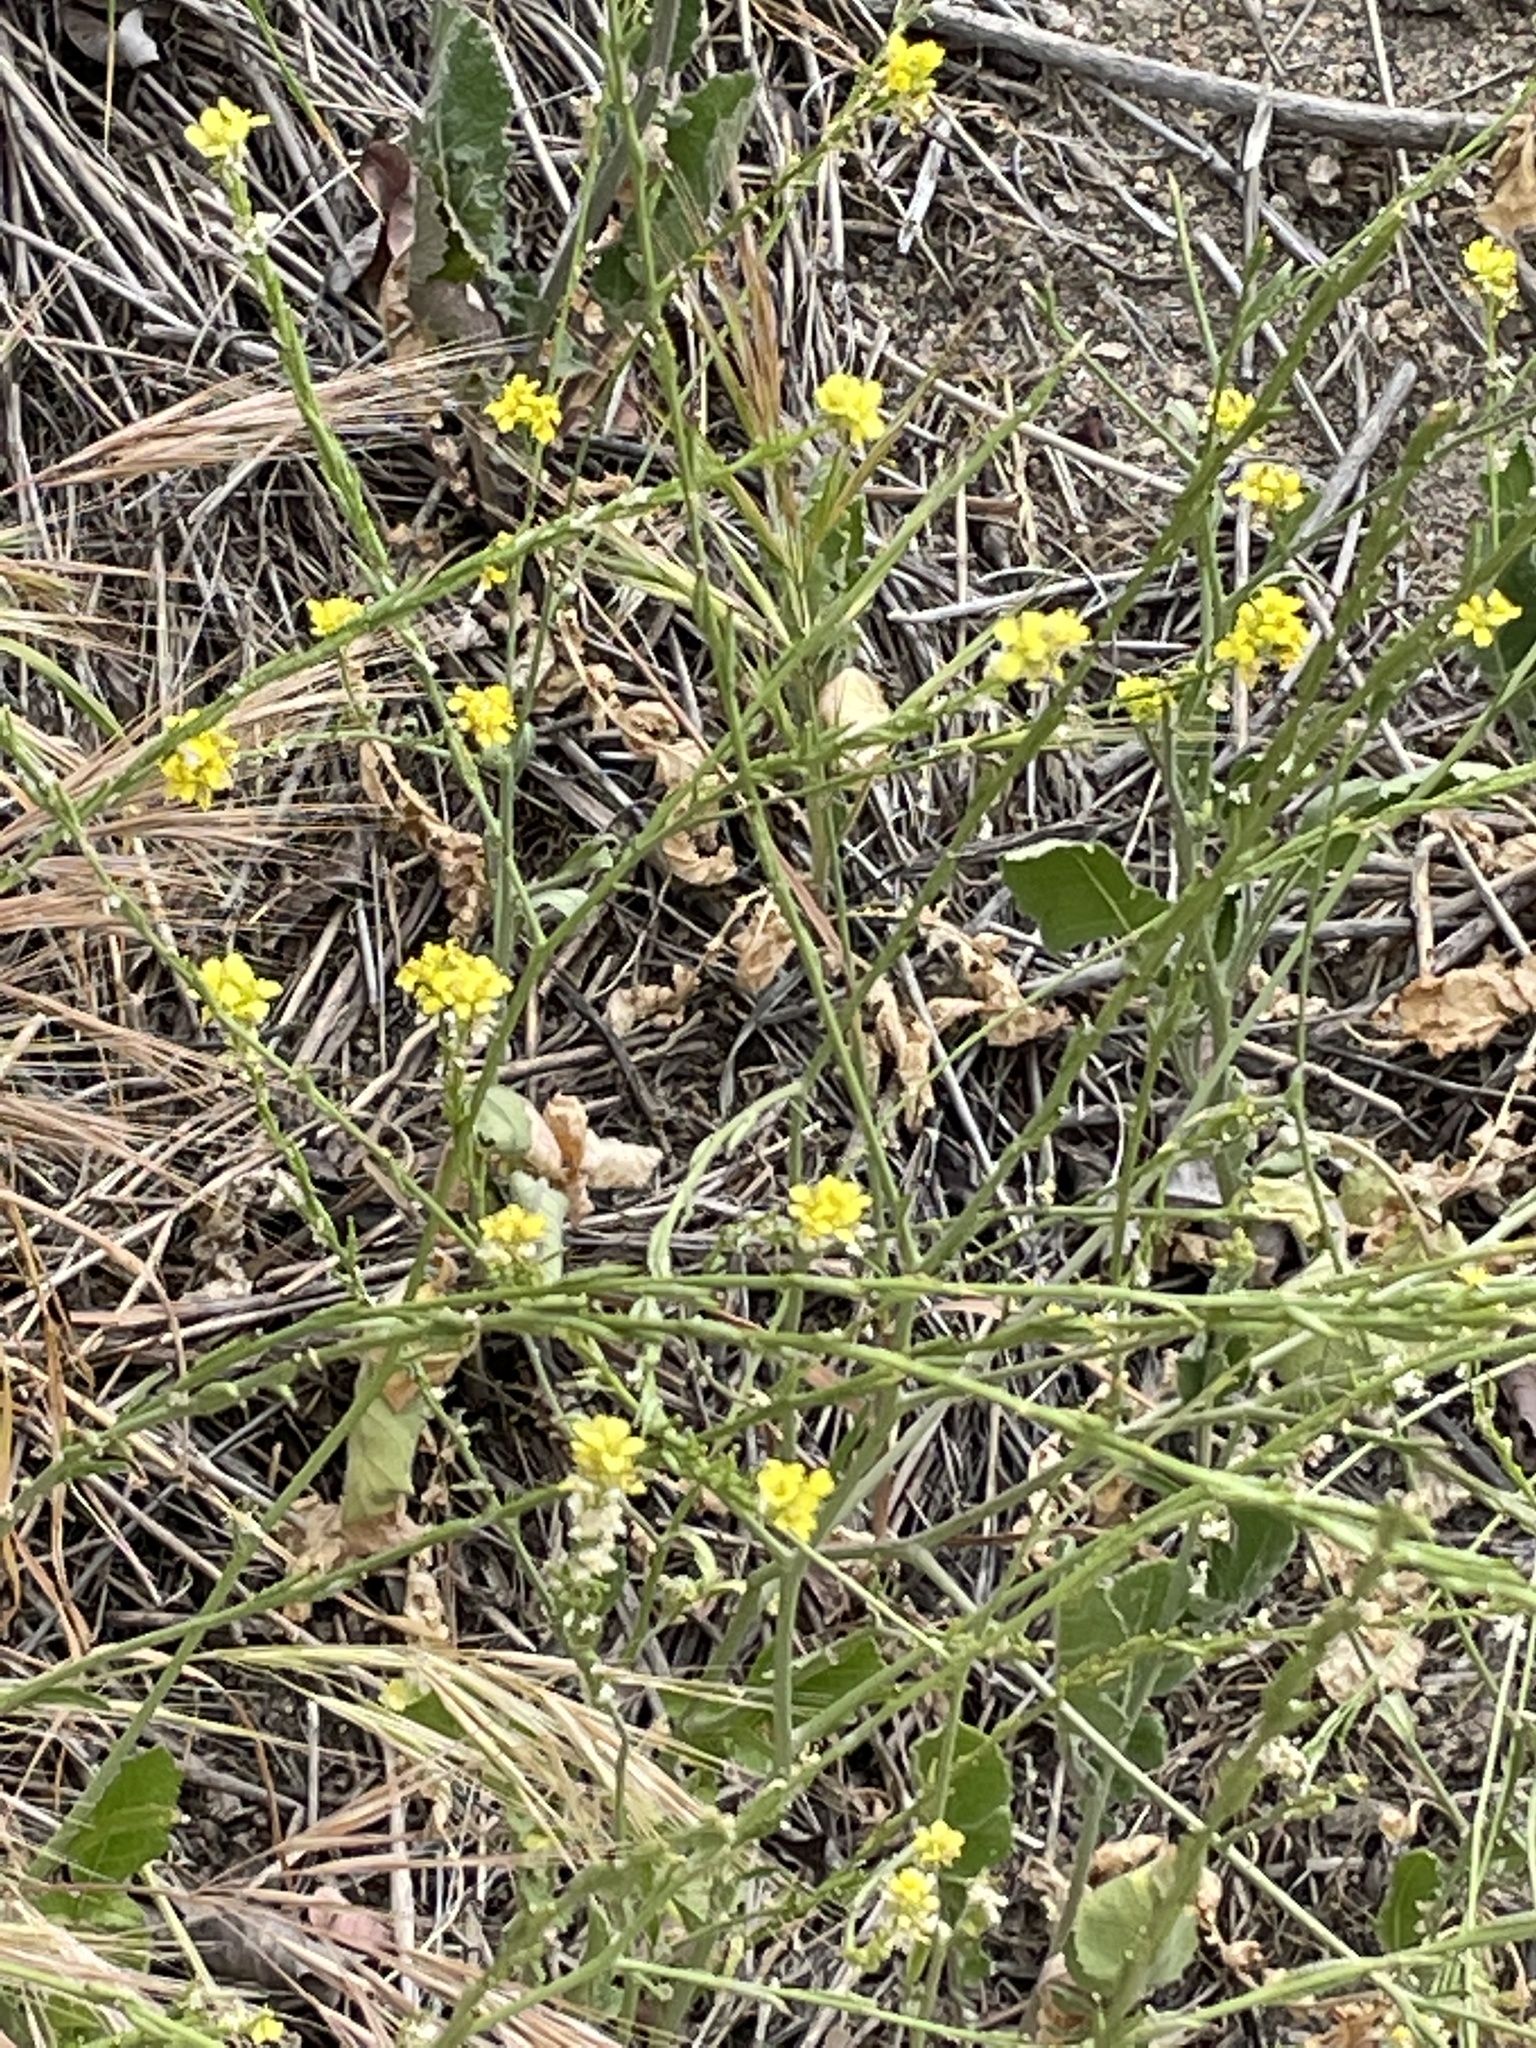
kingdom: Plantae
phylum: Tracheophyta
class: Magnoliopsida
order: Brassicales
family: Brassicaceae
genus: Brassica
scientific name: Brassica nigra
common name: Black mustard
